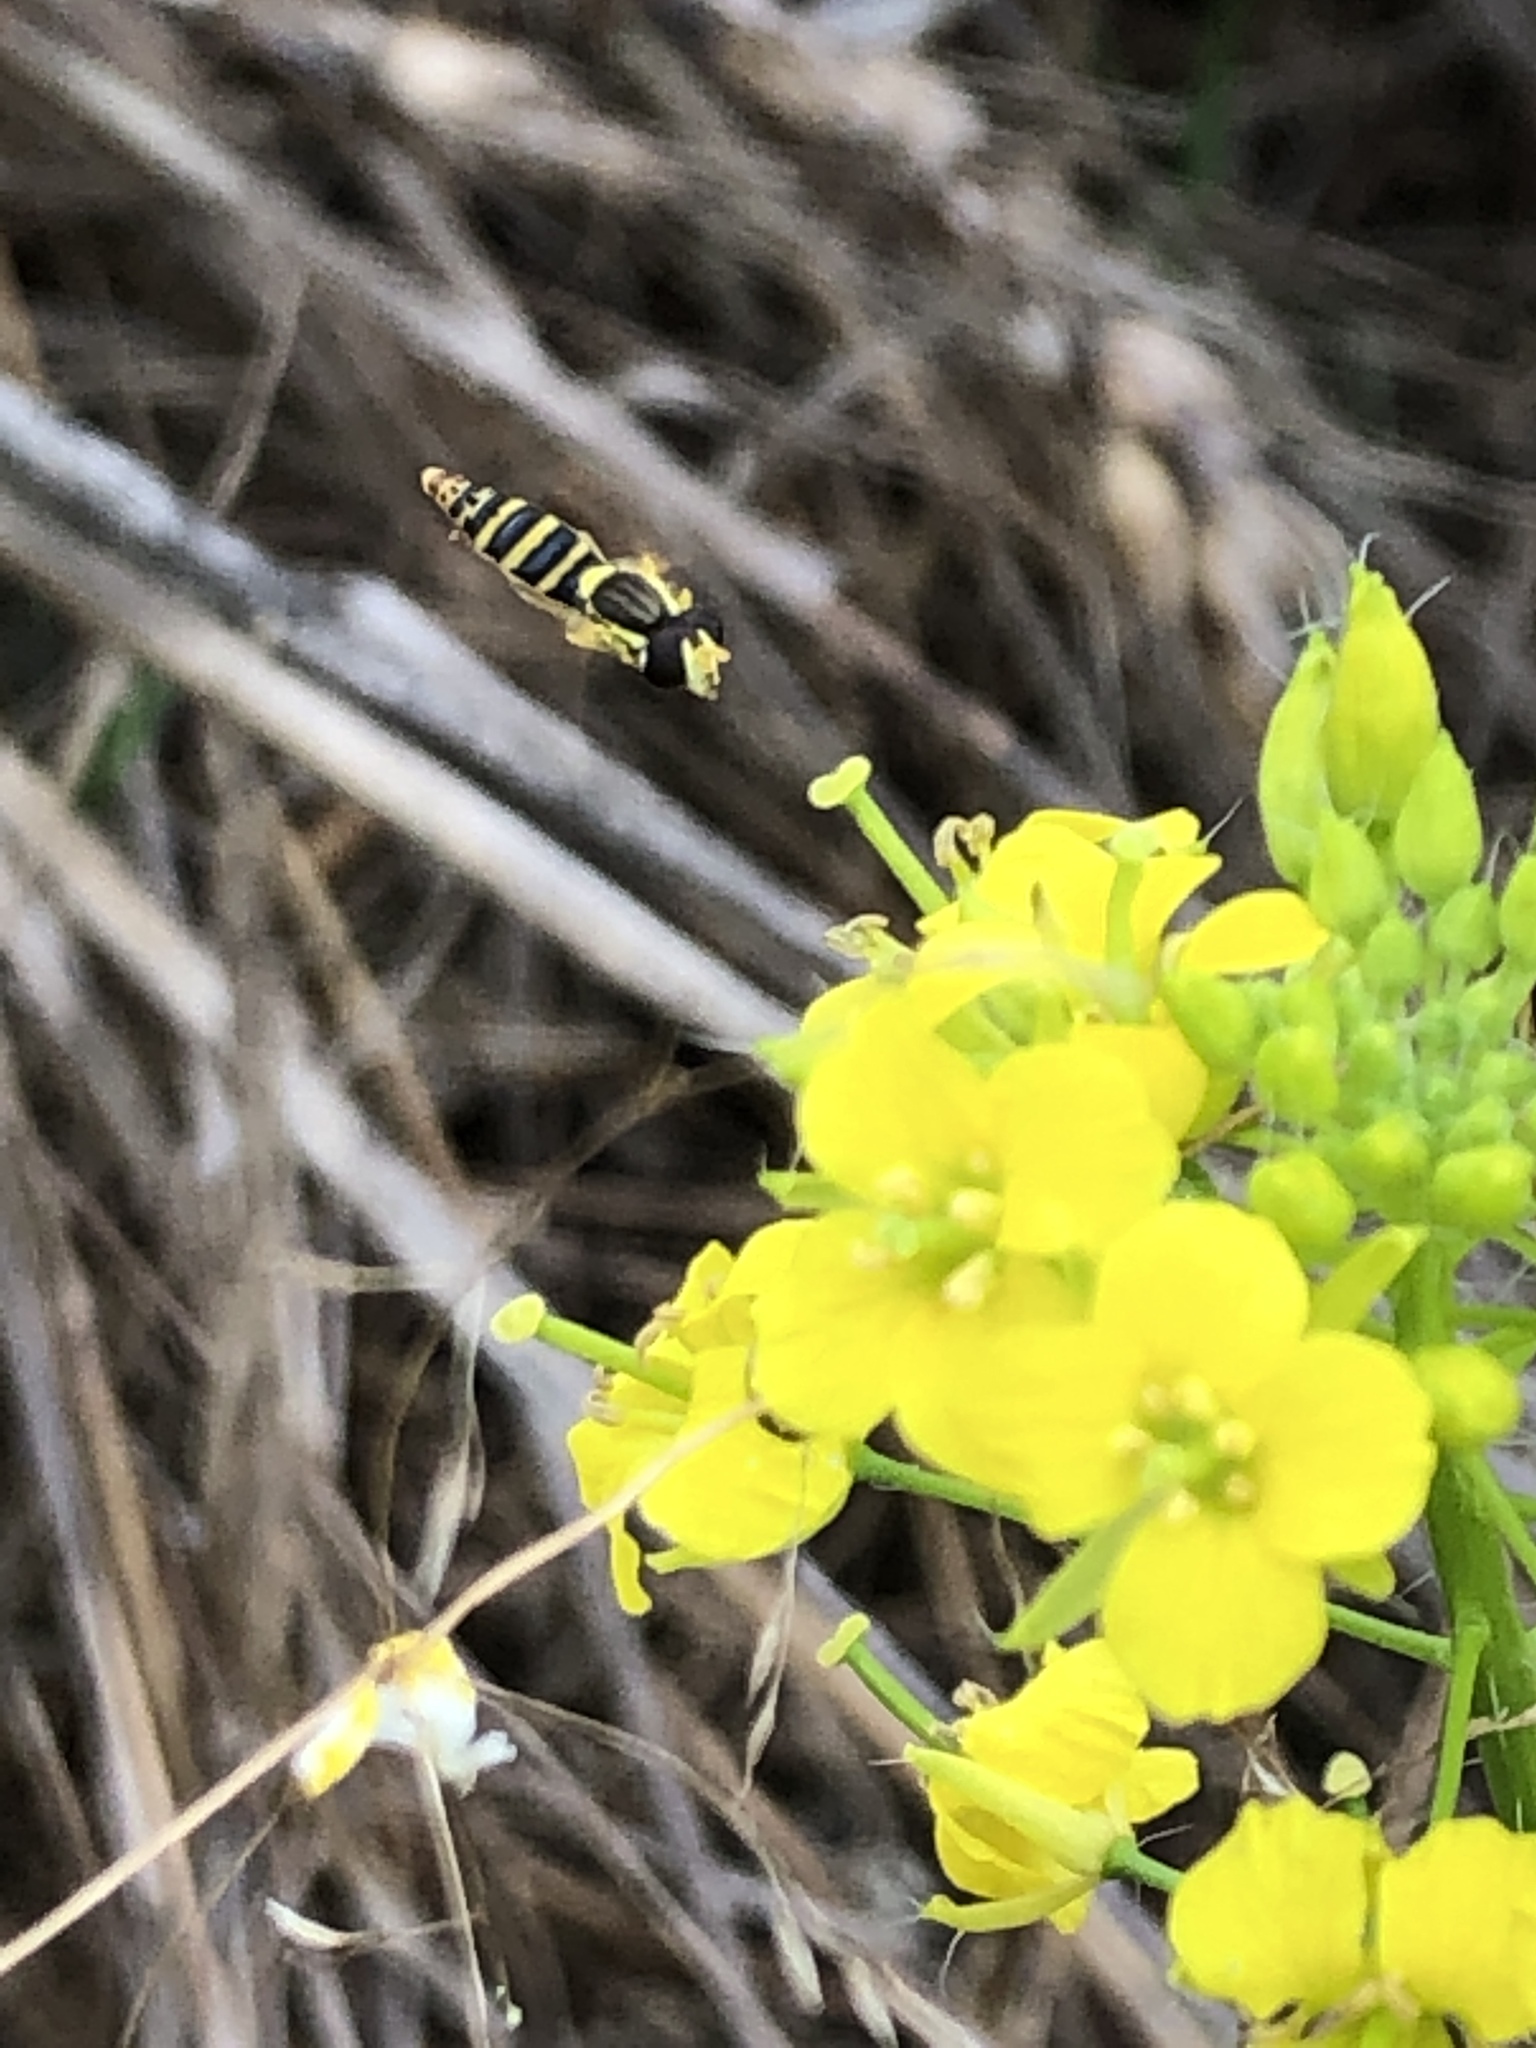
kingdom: Animalia
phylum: Arthropoda
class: Insecta
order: Diptera
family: Syrphidae
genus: Sphaerophoria
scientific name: Sphaerophoria
